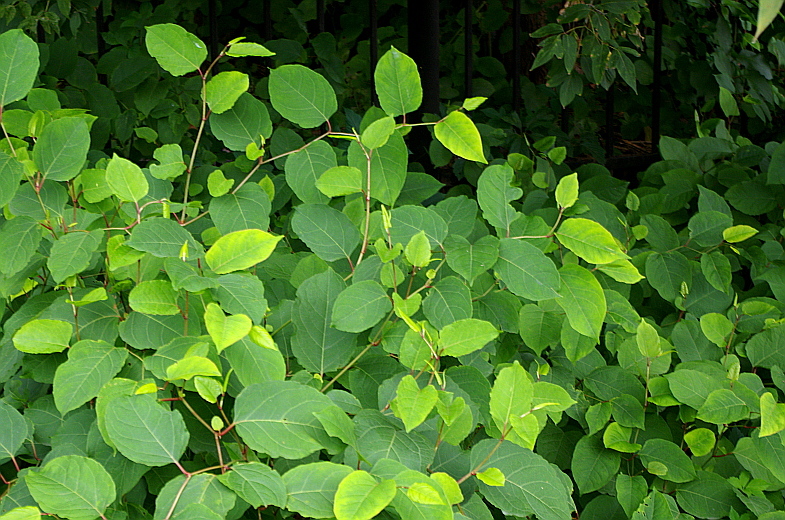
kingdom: Plantae
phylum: Tracheophyta
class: Magnoliopsida
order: Caryophyllales
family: Polygonaceae
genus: Reynoutria
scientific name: Reynoutria bohemica
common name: Bohemian knotweed
